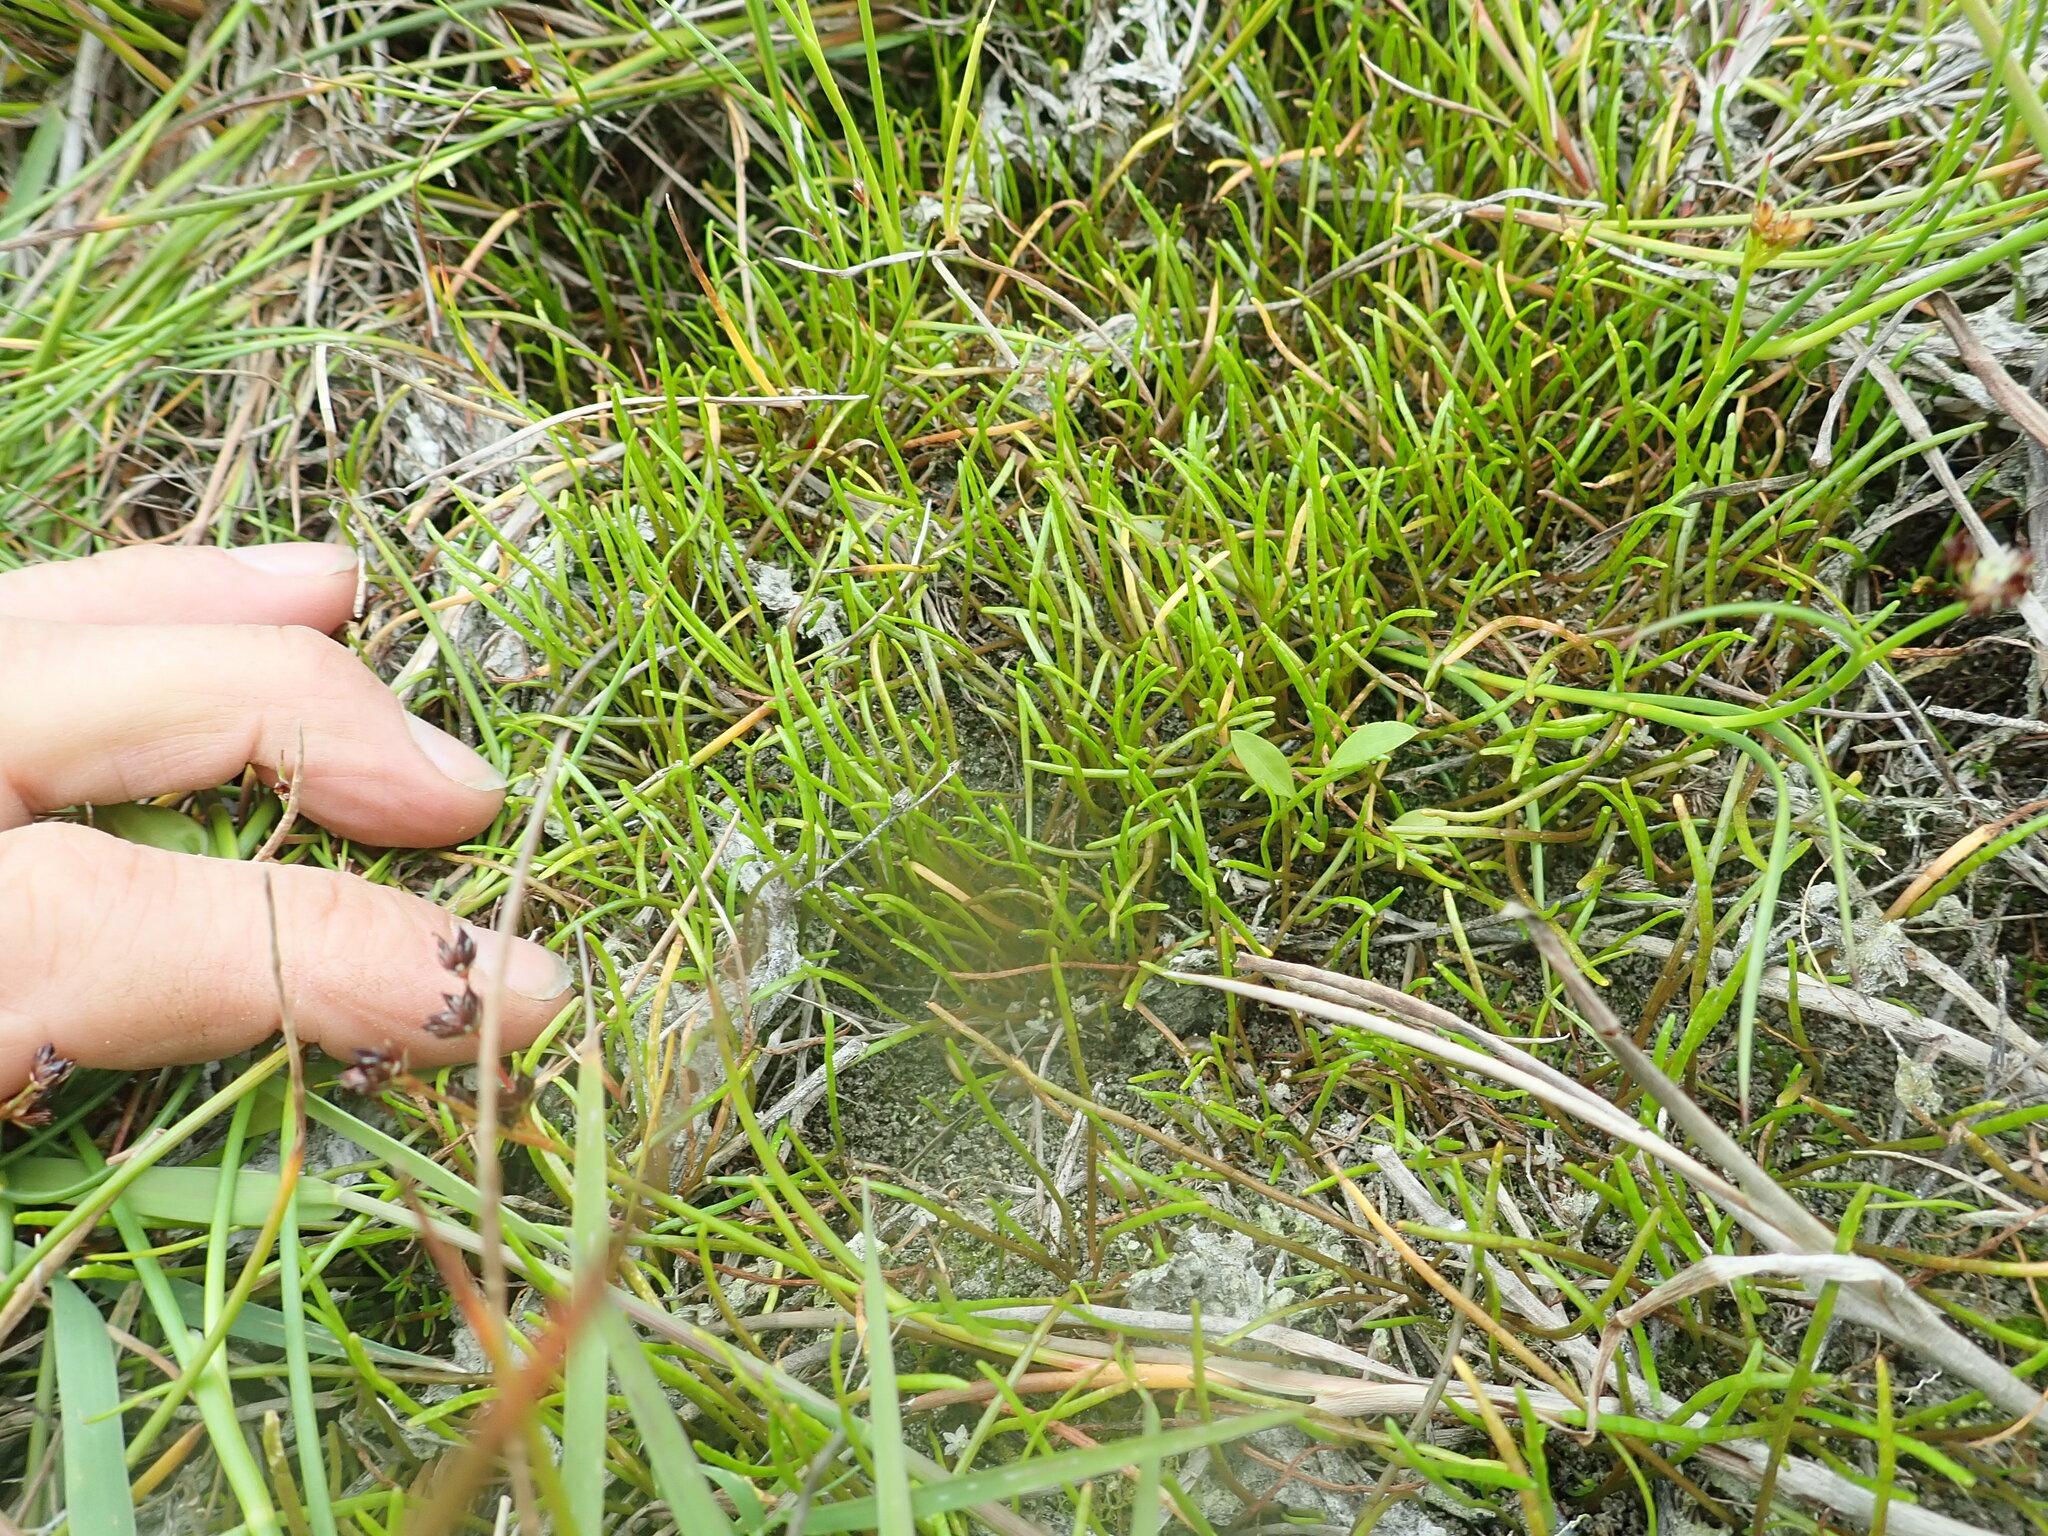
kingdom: Plantae
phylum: Tracheophyta
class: Magnoliopsida
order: Apiales
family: Apiaceae
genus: Lilaeopsis
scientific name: Lilaeopsis novae-zelandiae
